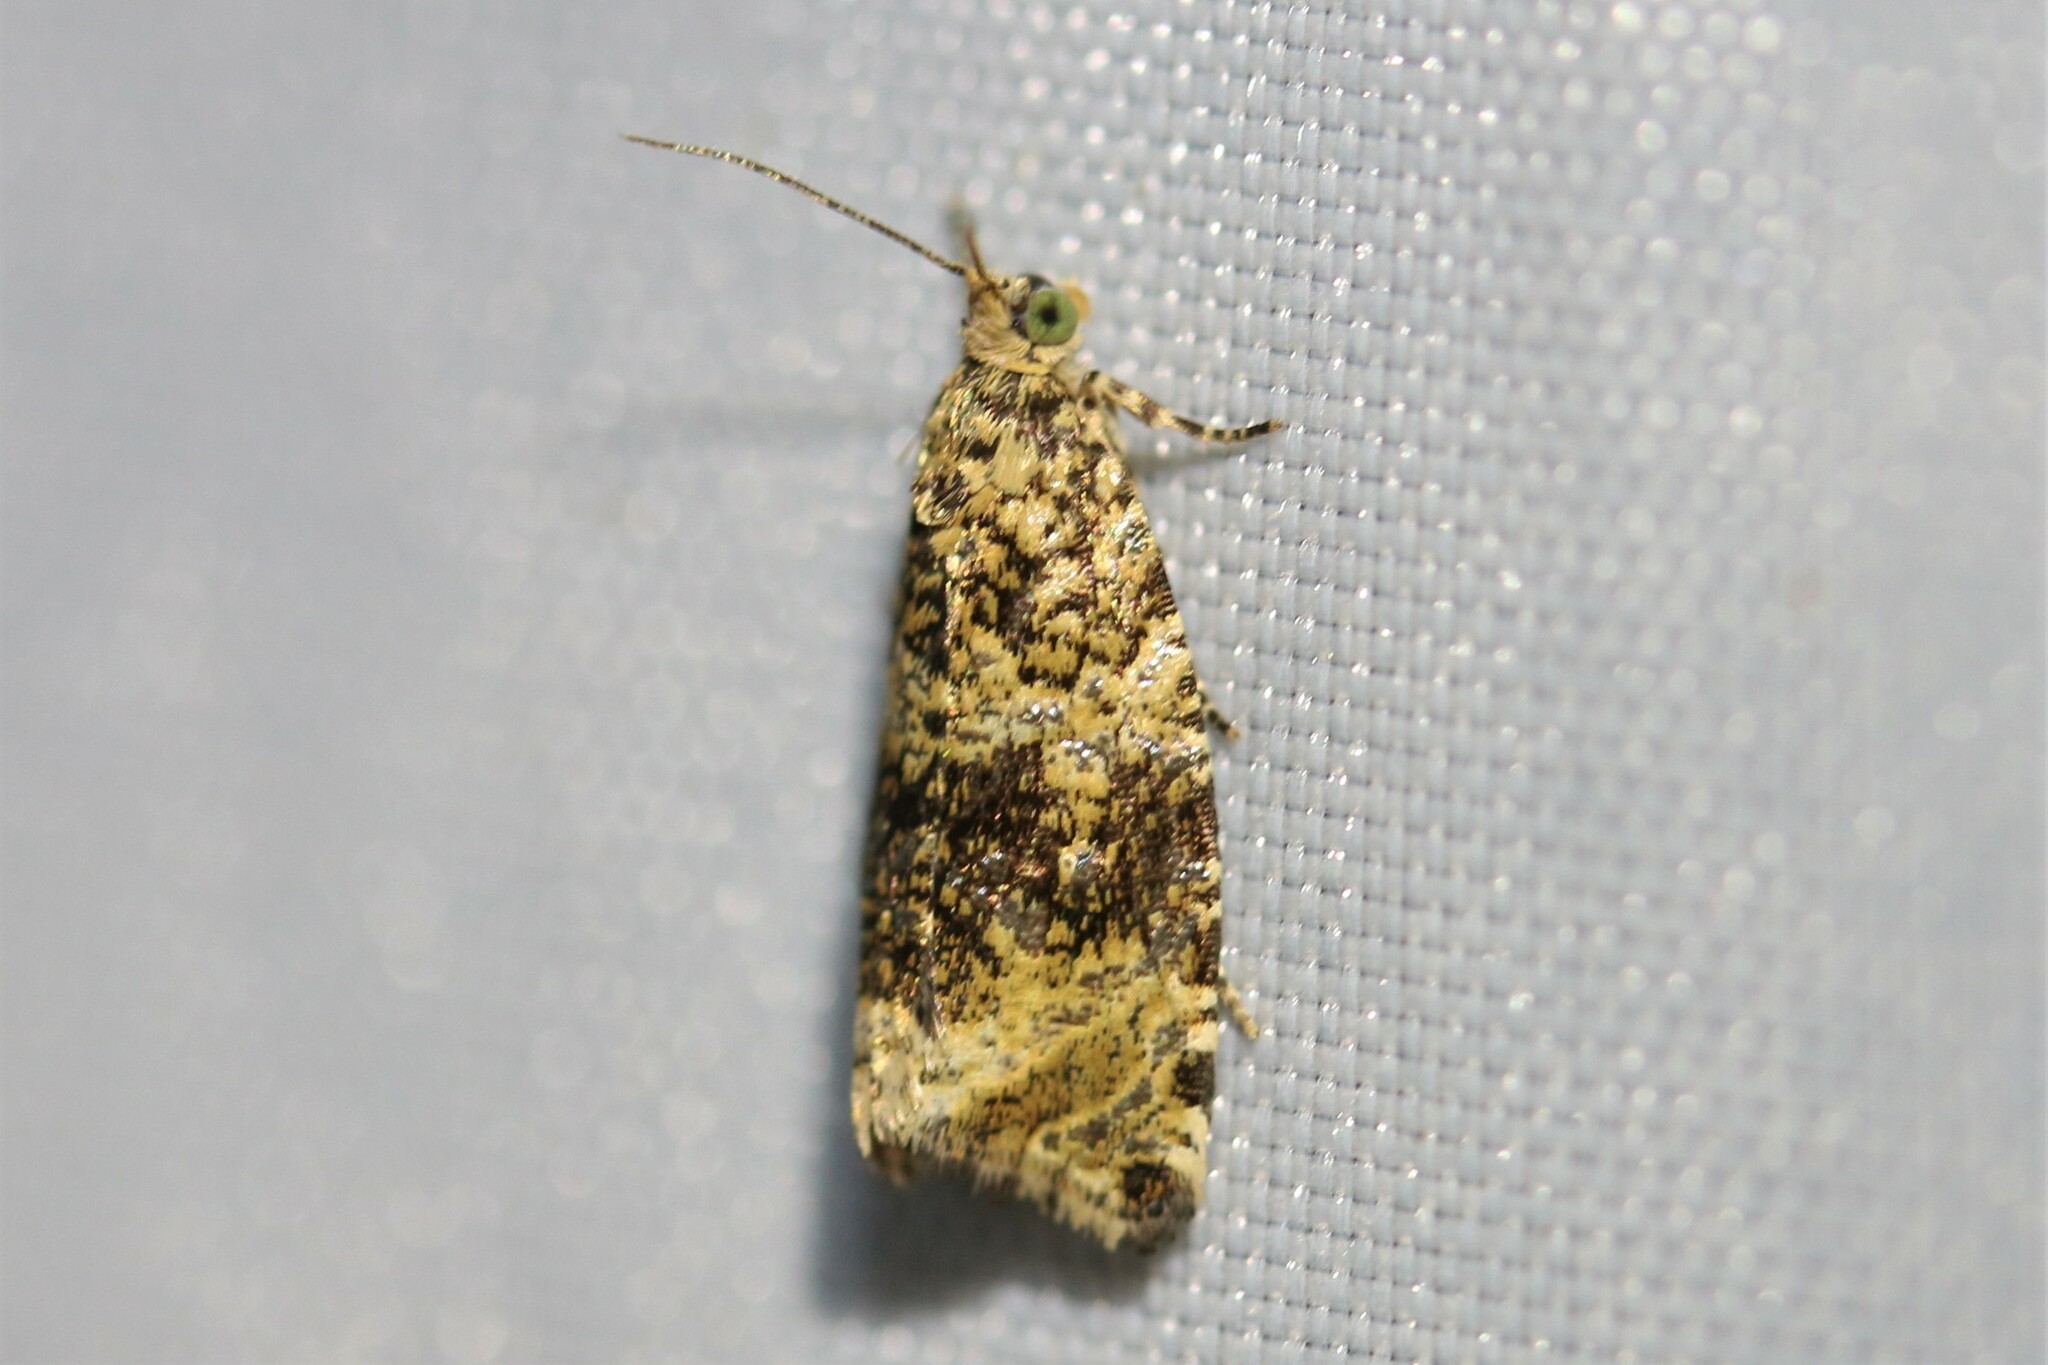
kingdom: Animalia
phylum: Arthropoda
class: Insecta
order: Lepidoptera
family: Tortricidae
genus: Syricoris
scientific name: Syricoris lacunana
